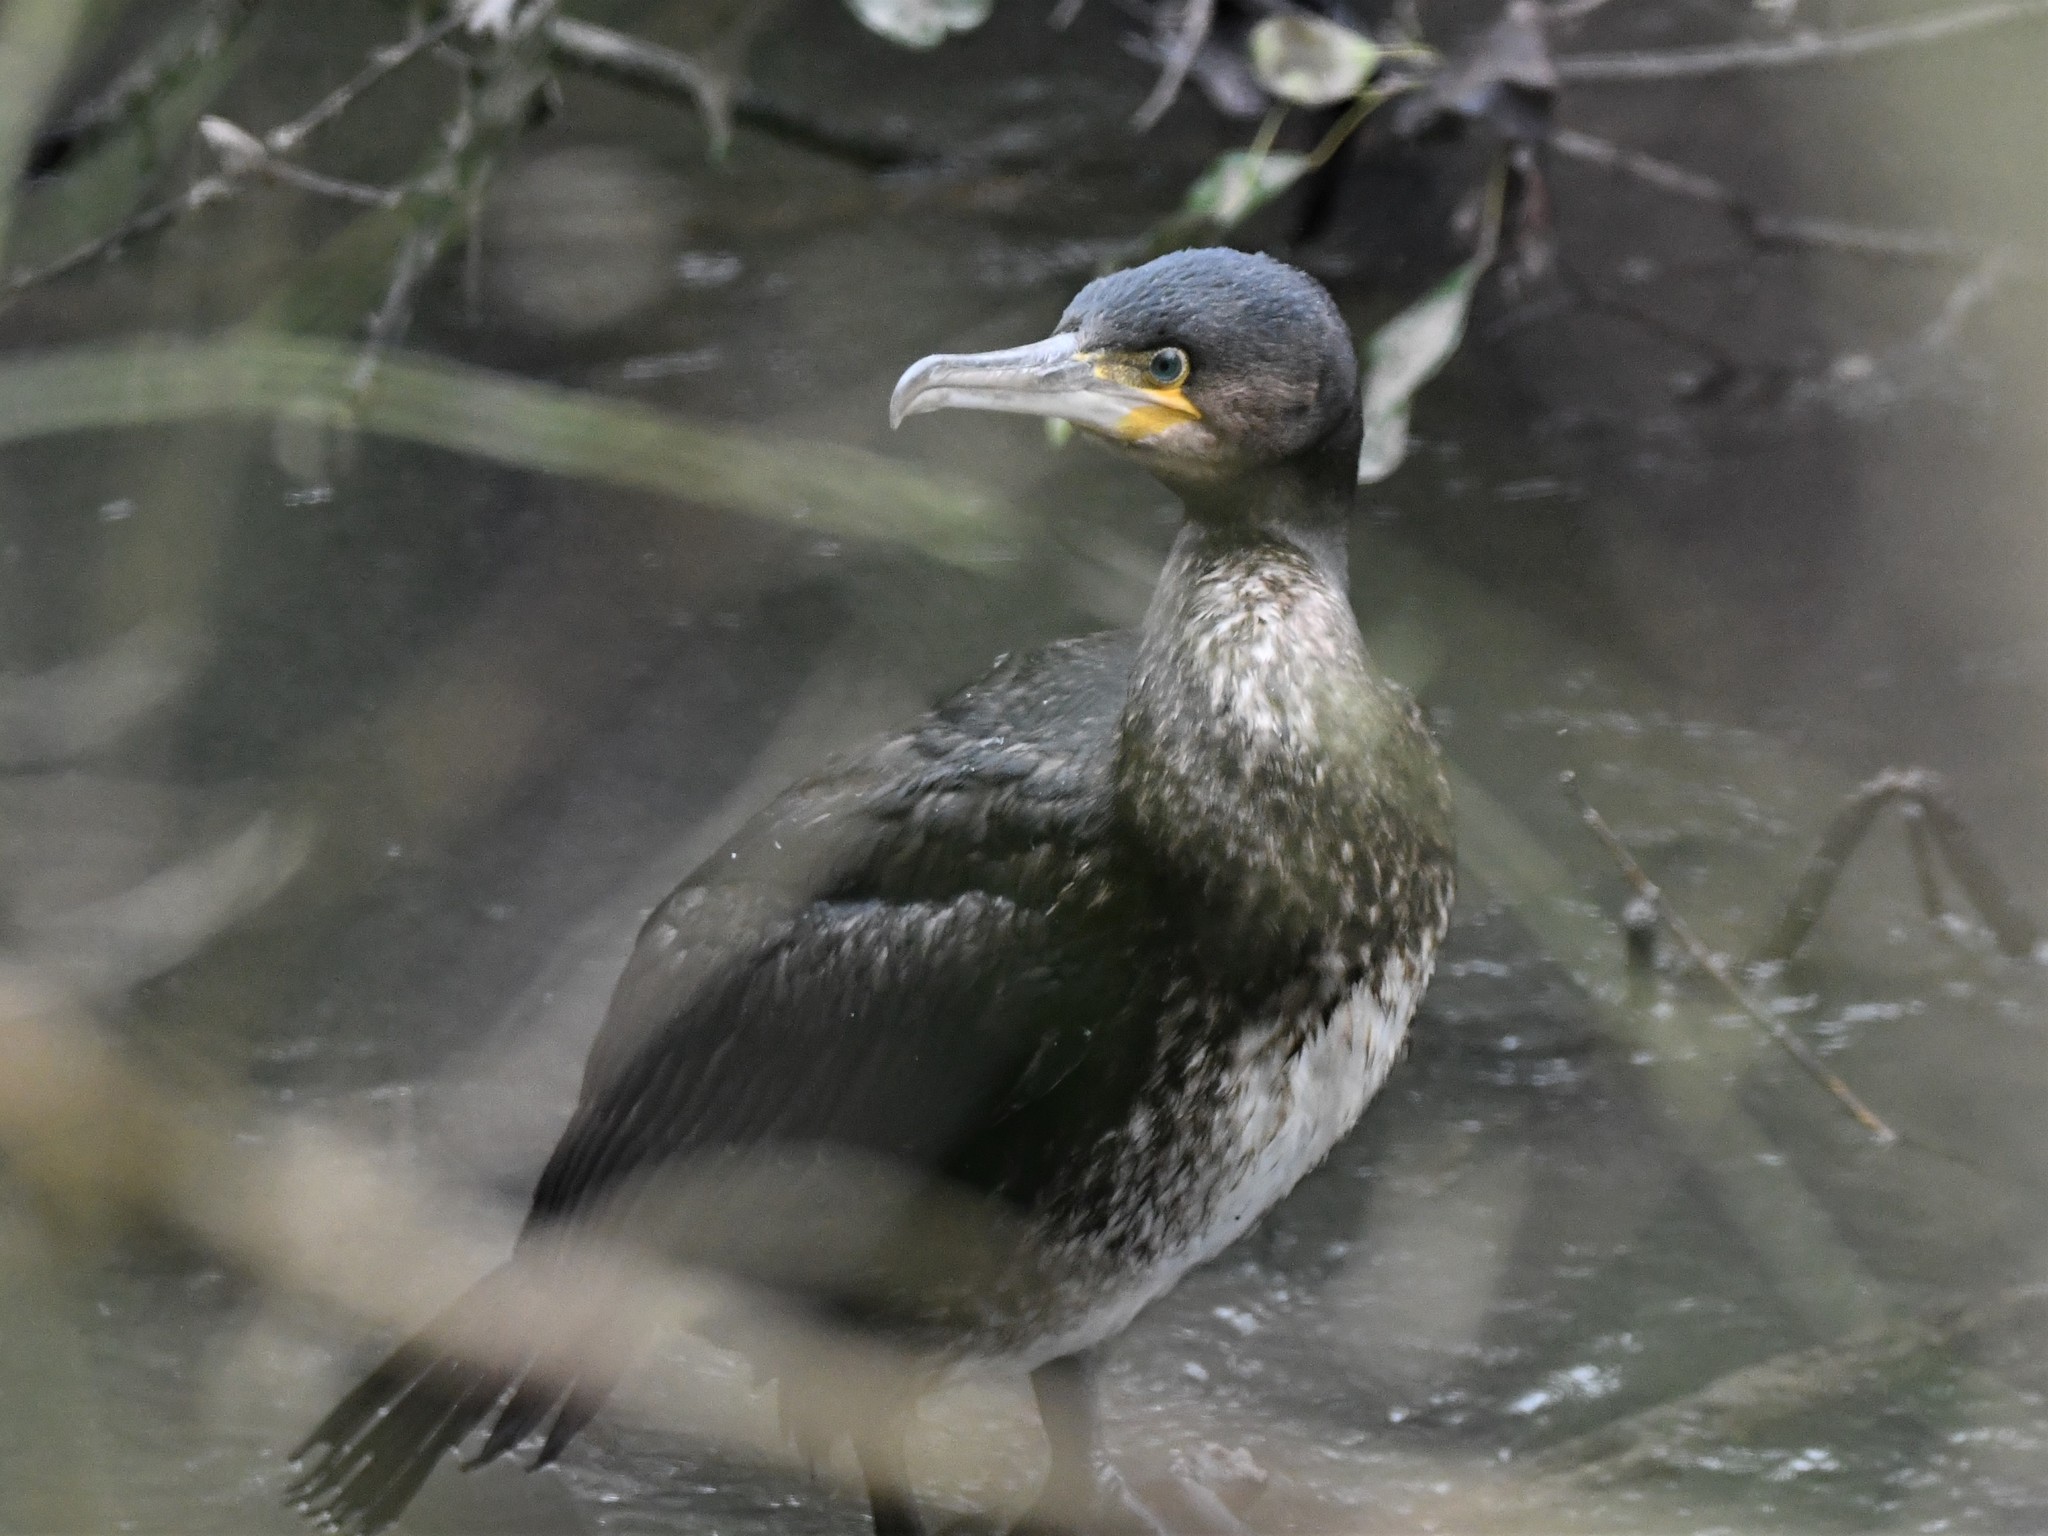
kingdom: Animalia
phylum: Chordata
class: Aves
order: Suliformes
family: Phalacrocoracidae
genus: Phalacrocorax
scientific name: Phalacrocorax carbo
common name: Great cormorant
